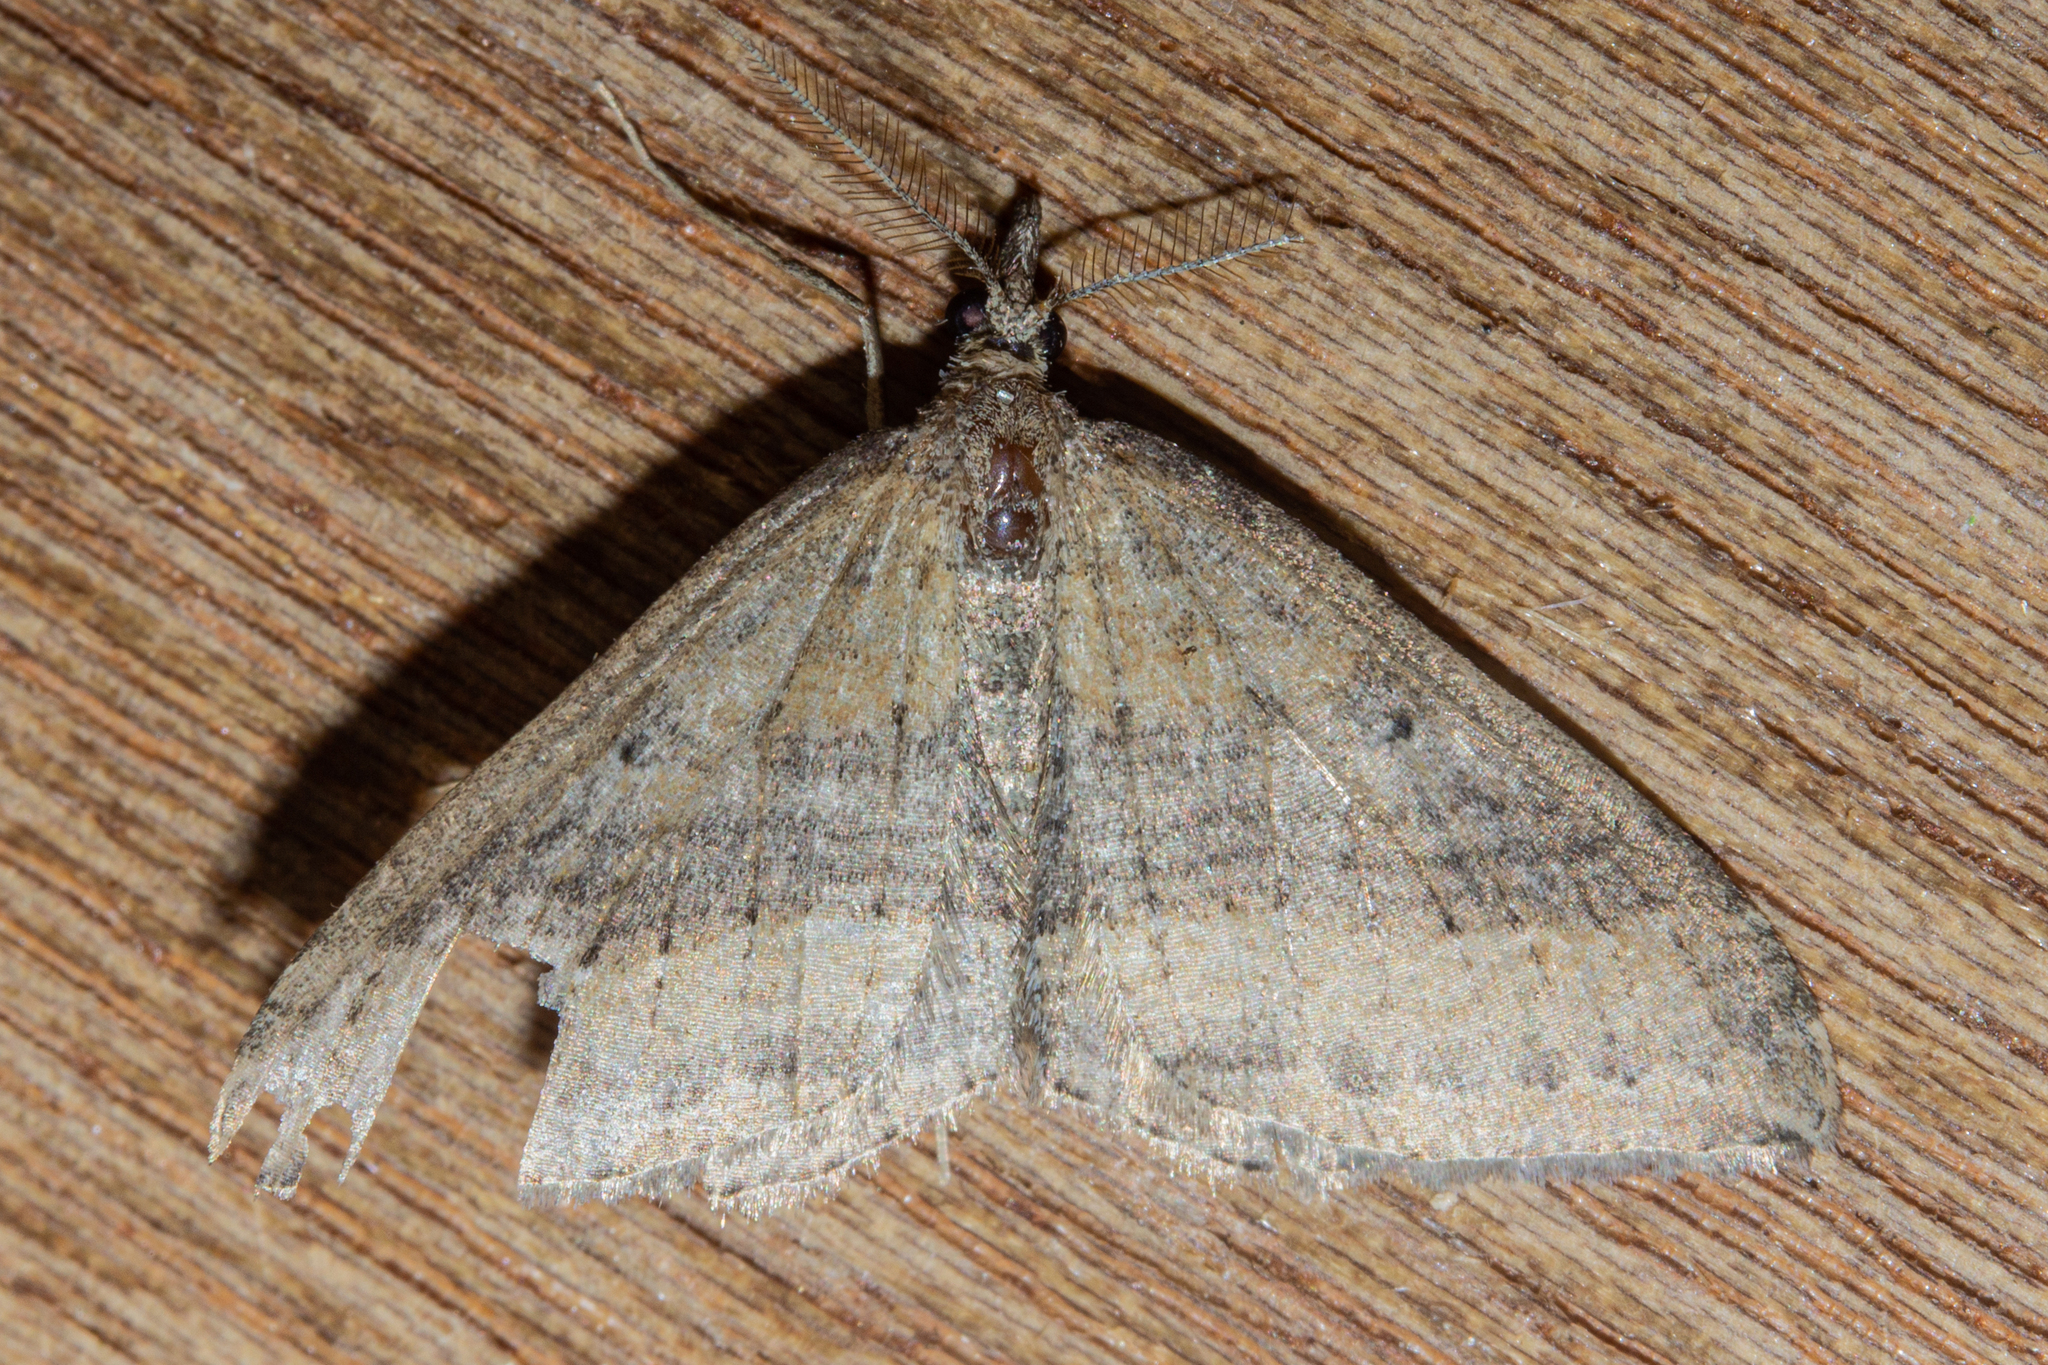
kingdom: Animalia
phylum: Arthropoda
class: Insecta
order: Lepidoptera
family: Geometridae
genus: Epyaxa
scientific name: Epyaxa venipunctata
